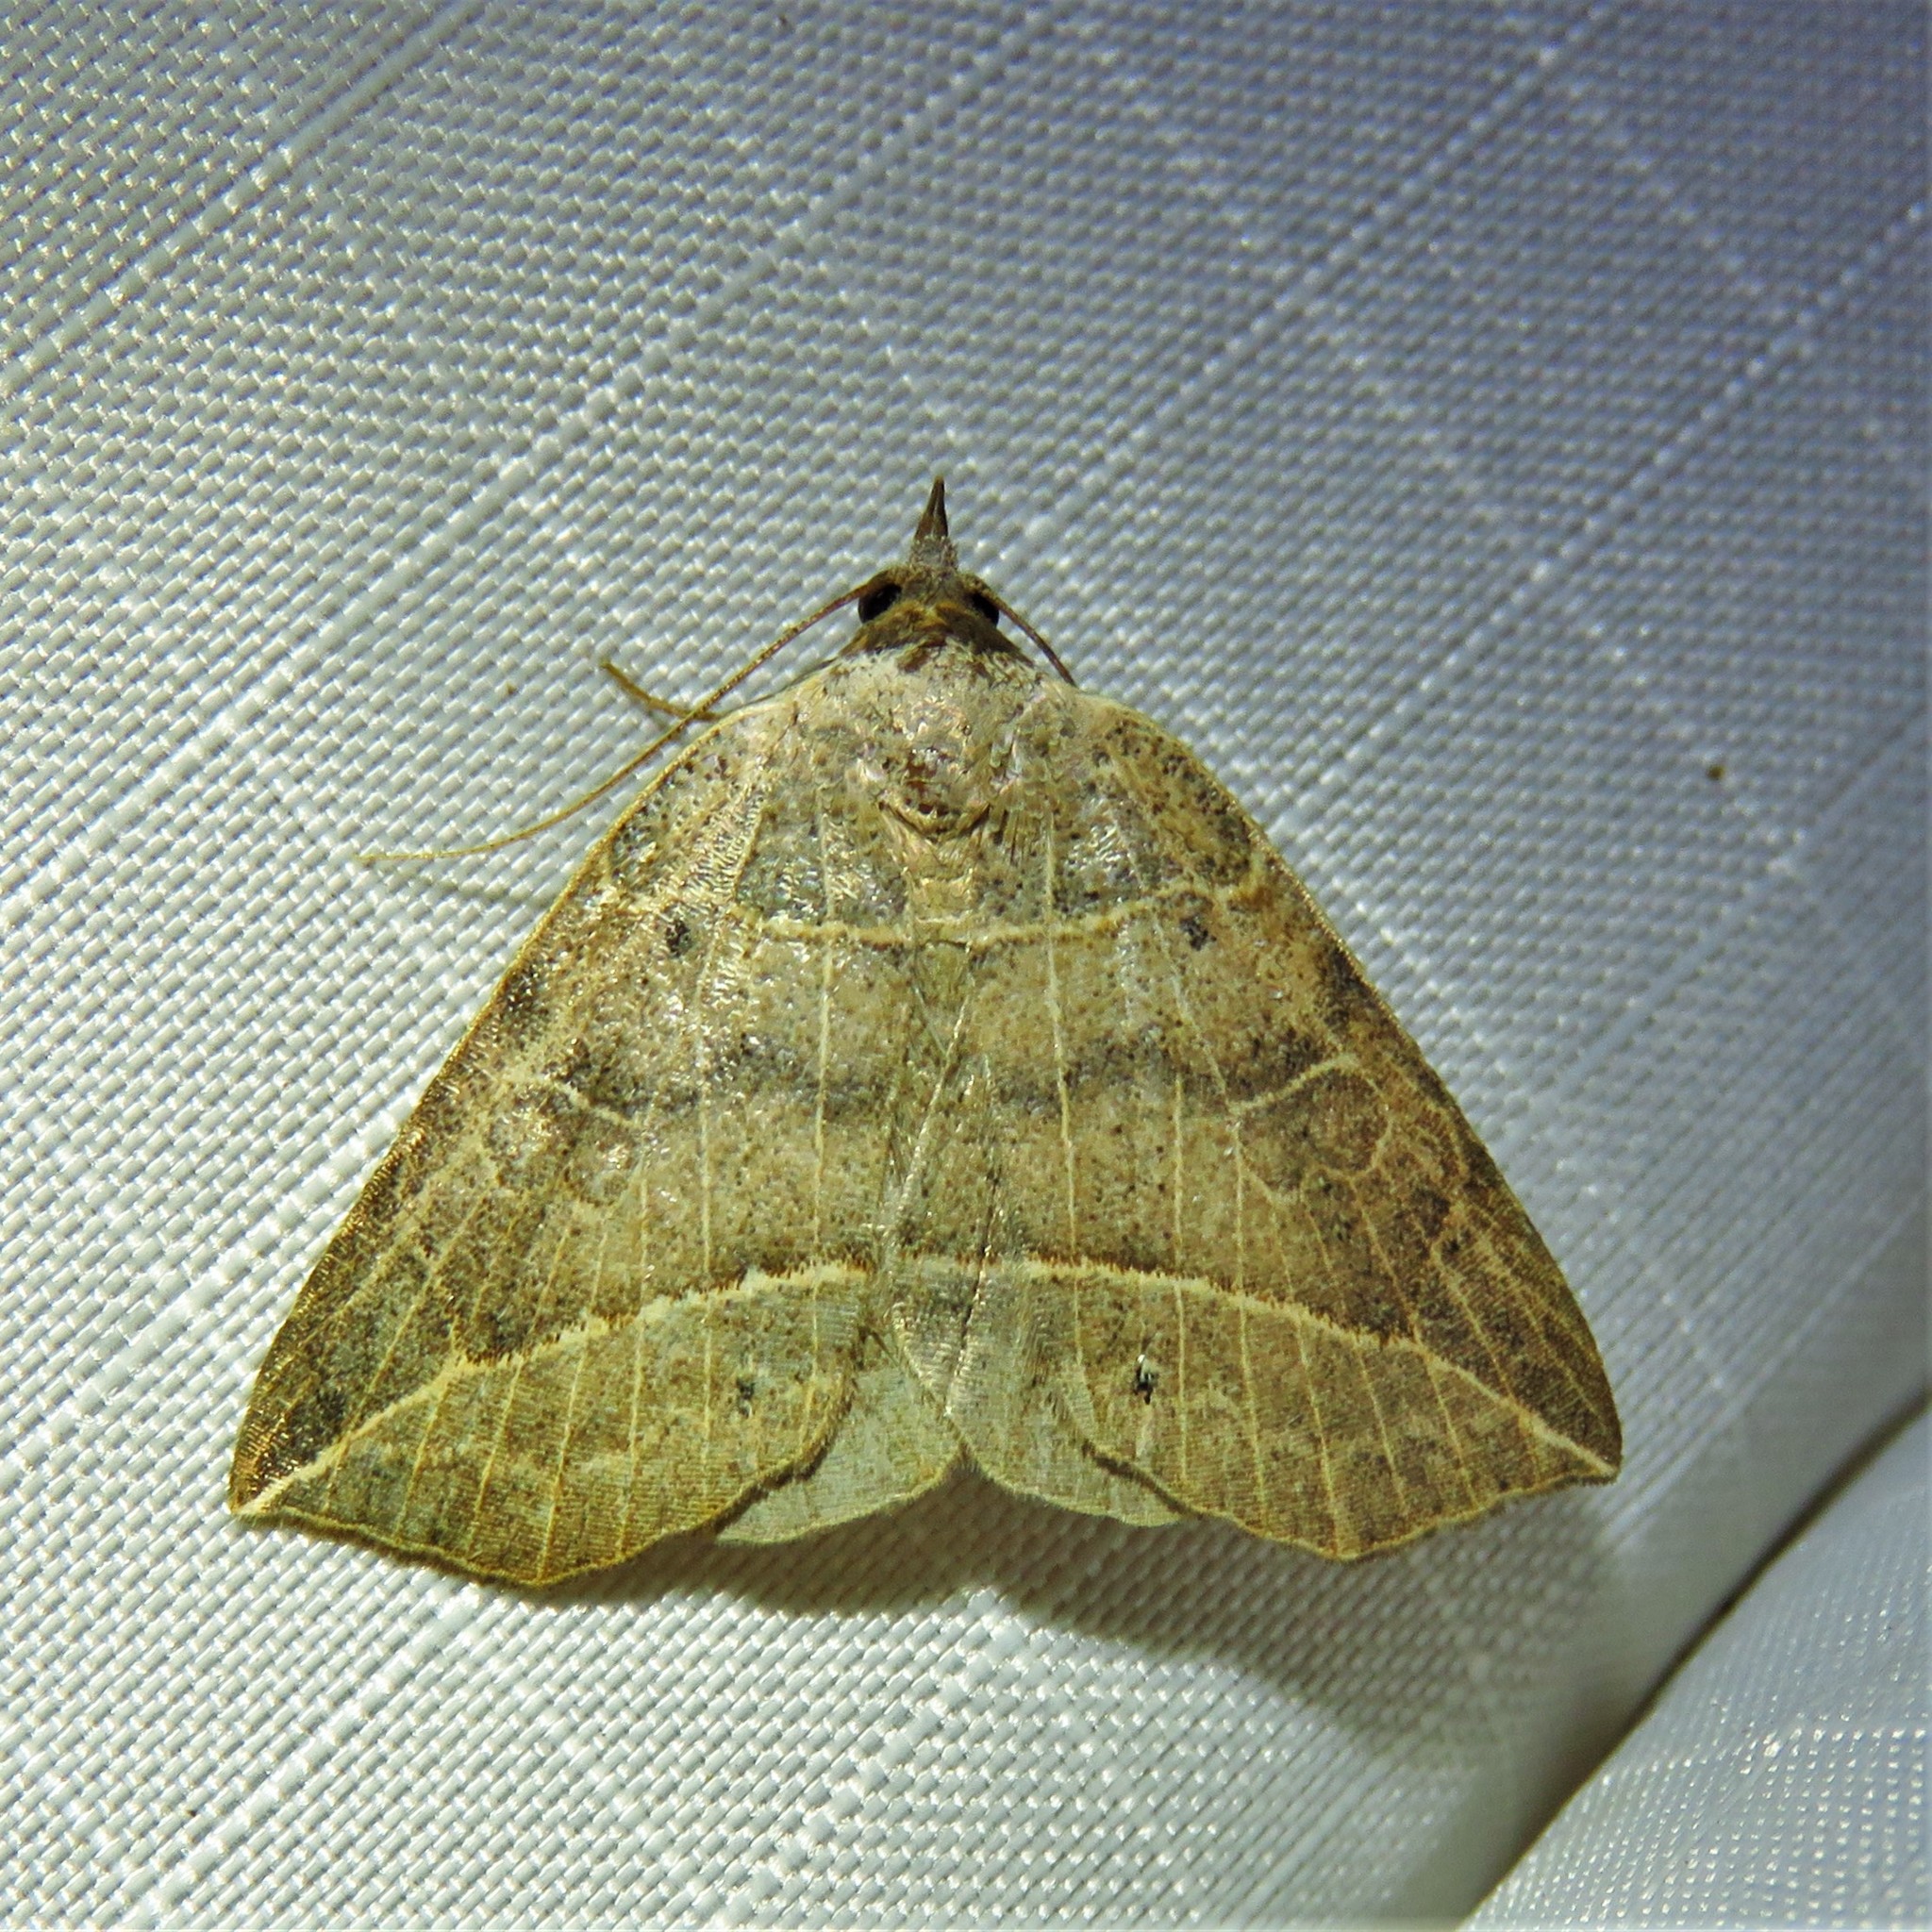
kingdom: Animalia
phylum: Arthropoda
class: Insecta
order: Lepidoptera
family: Erebidae
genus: Isogona
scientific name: Isogona tenuis
